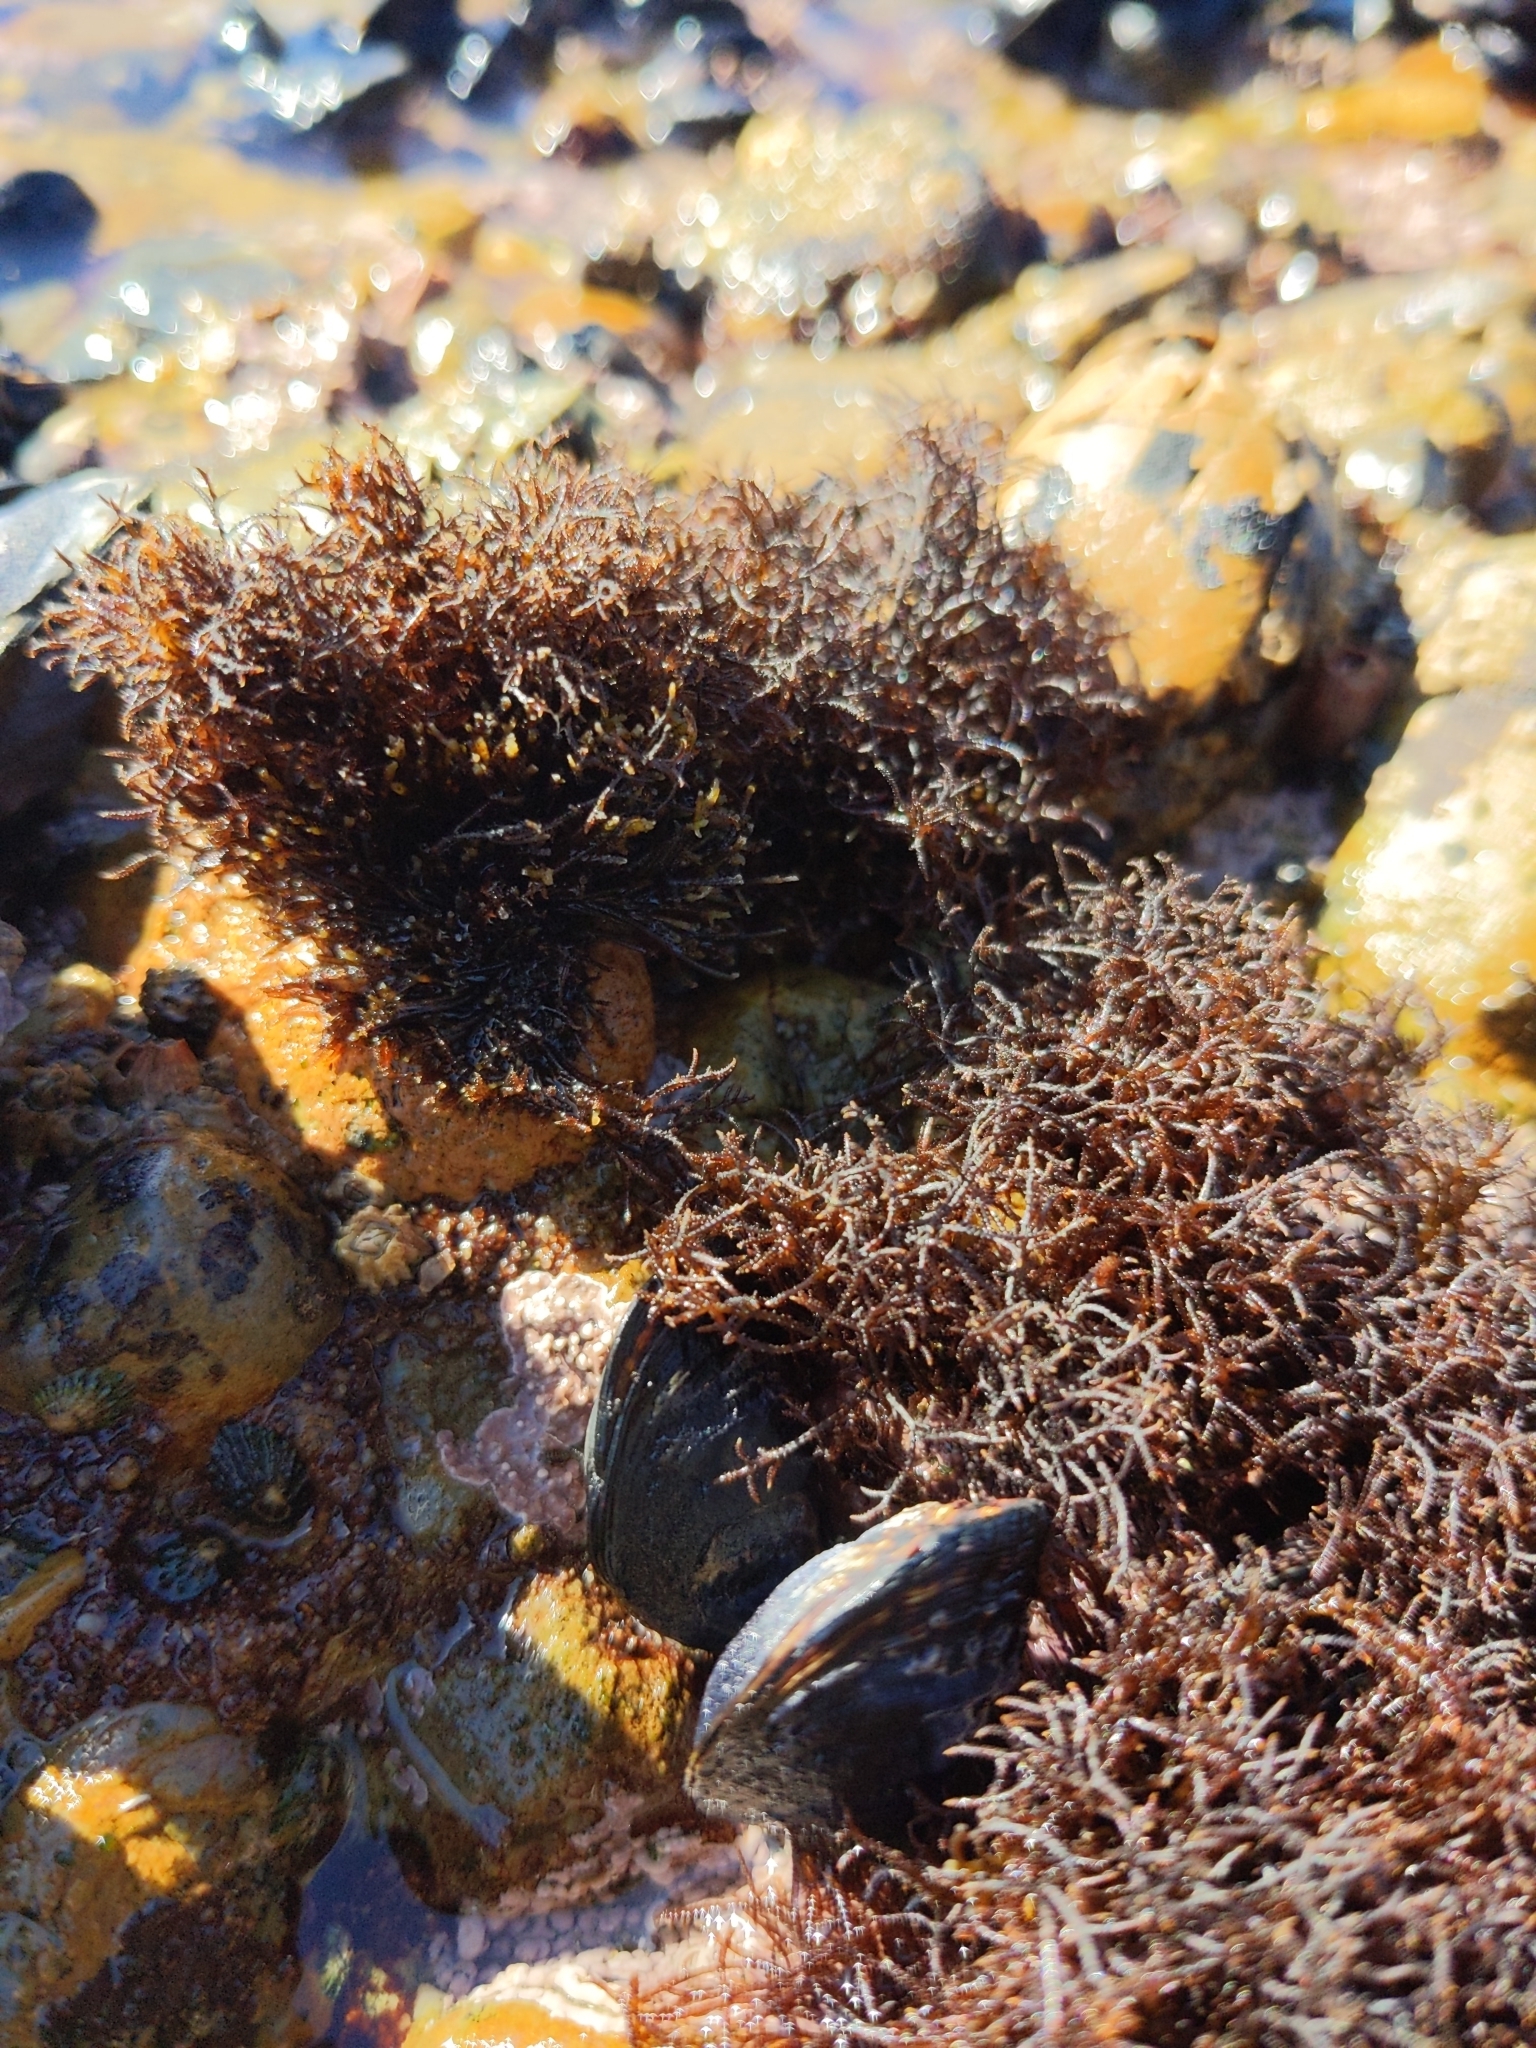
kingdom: Plantae
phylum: Rhodophyta
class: Florideophyceae
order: Gigartinales
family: Endocladiaceae
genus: Endocladia
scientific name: Endocladia muricata
